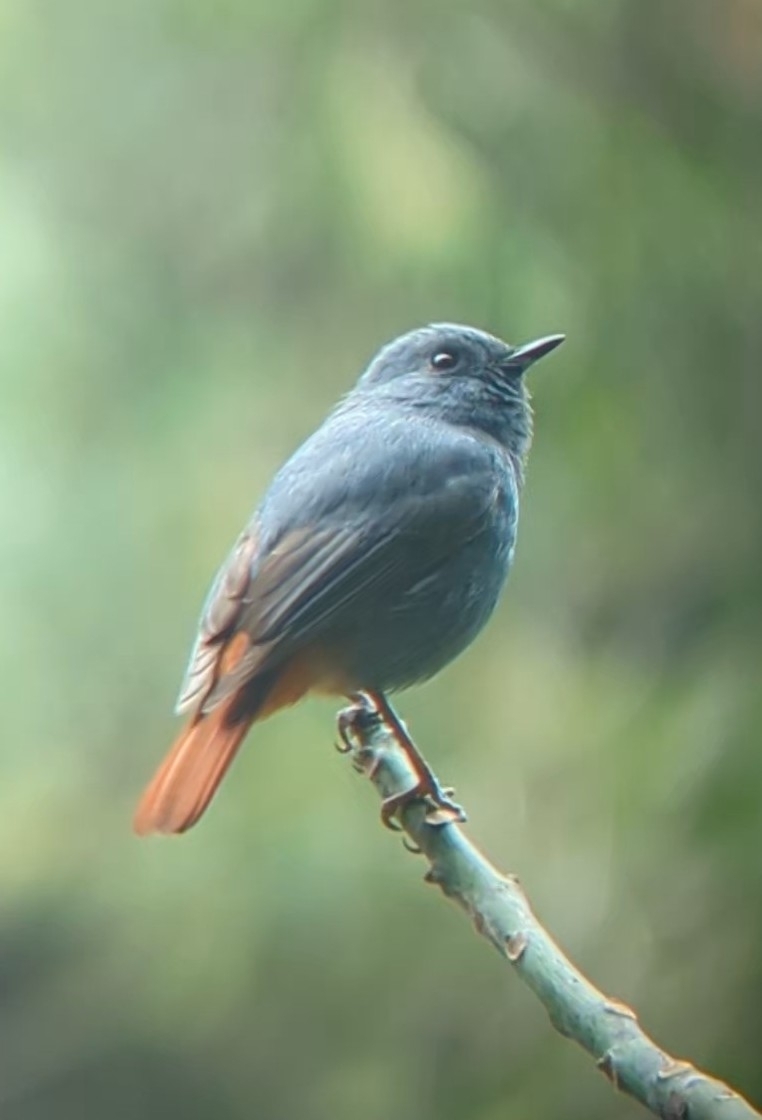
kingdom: Animalia
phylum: Chordata
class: Aves
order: Passeriformes
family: Muscicapidae
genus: Phoenicurus
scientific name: Phoenicurus fuliginosus
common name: Plumbeous water redstart
